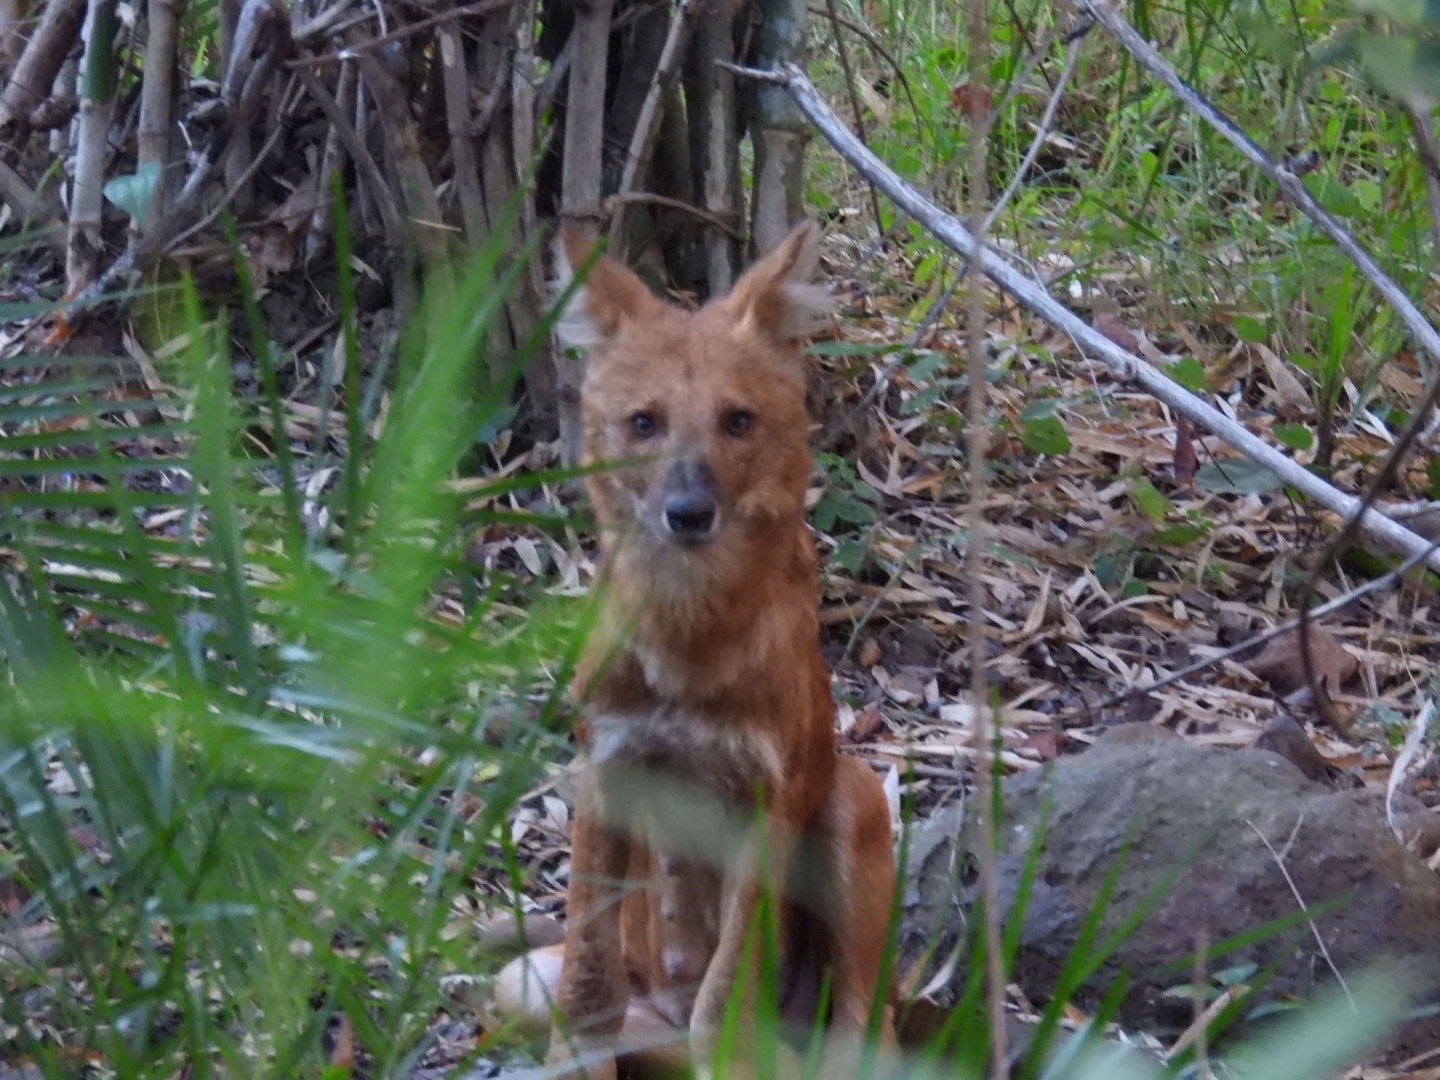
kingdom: Animalia
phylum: Chordata
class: Mammalia
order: Carnivora
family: Canidae
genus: Cuon
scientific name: Cuon alpinus
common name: Dhole
